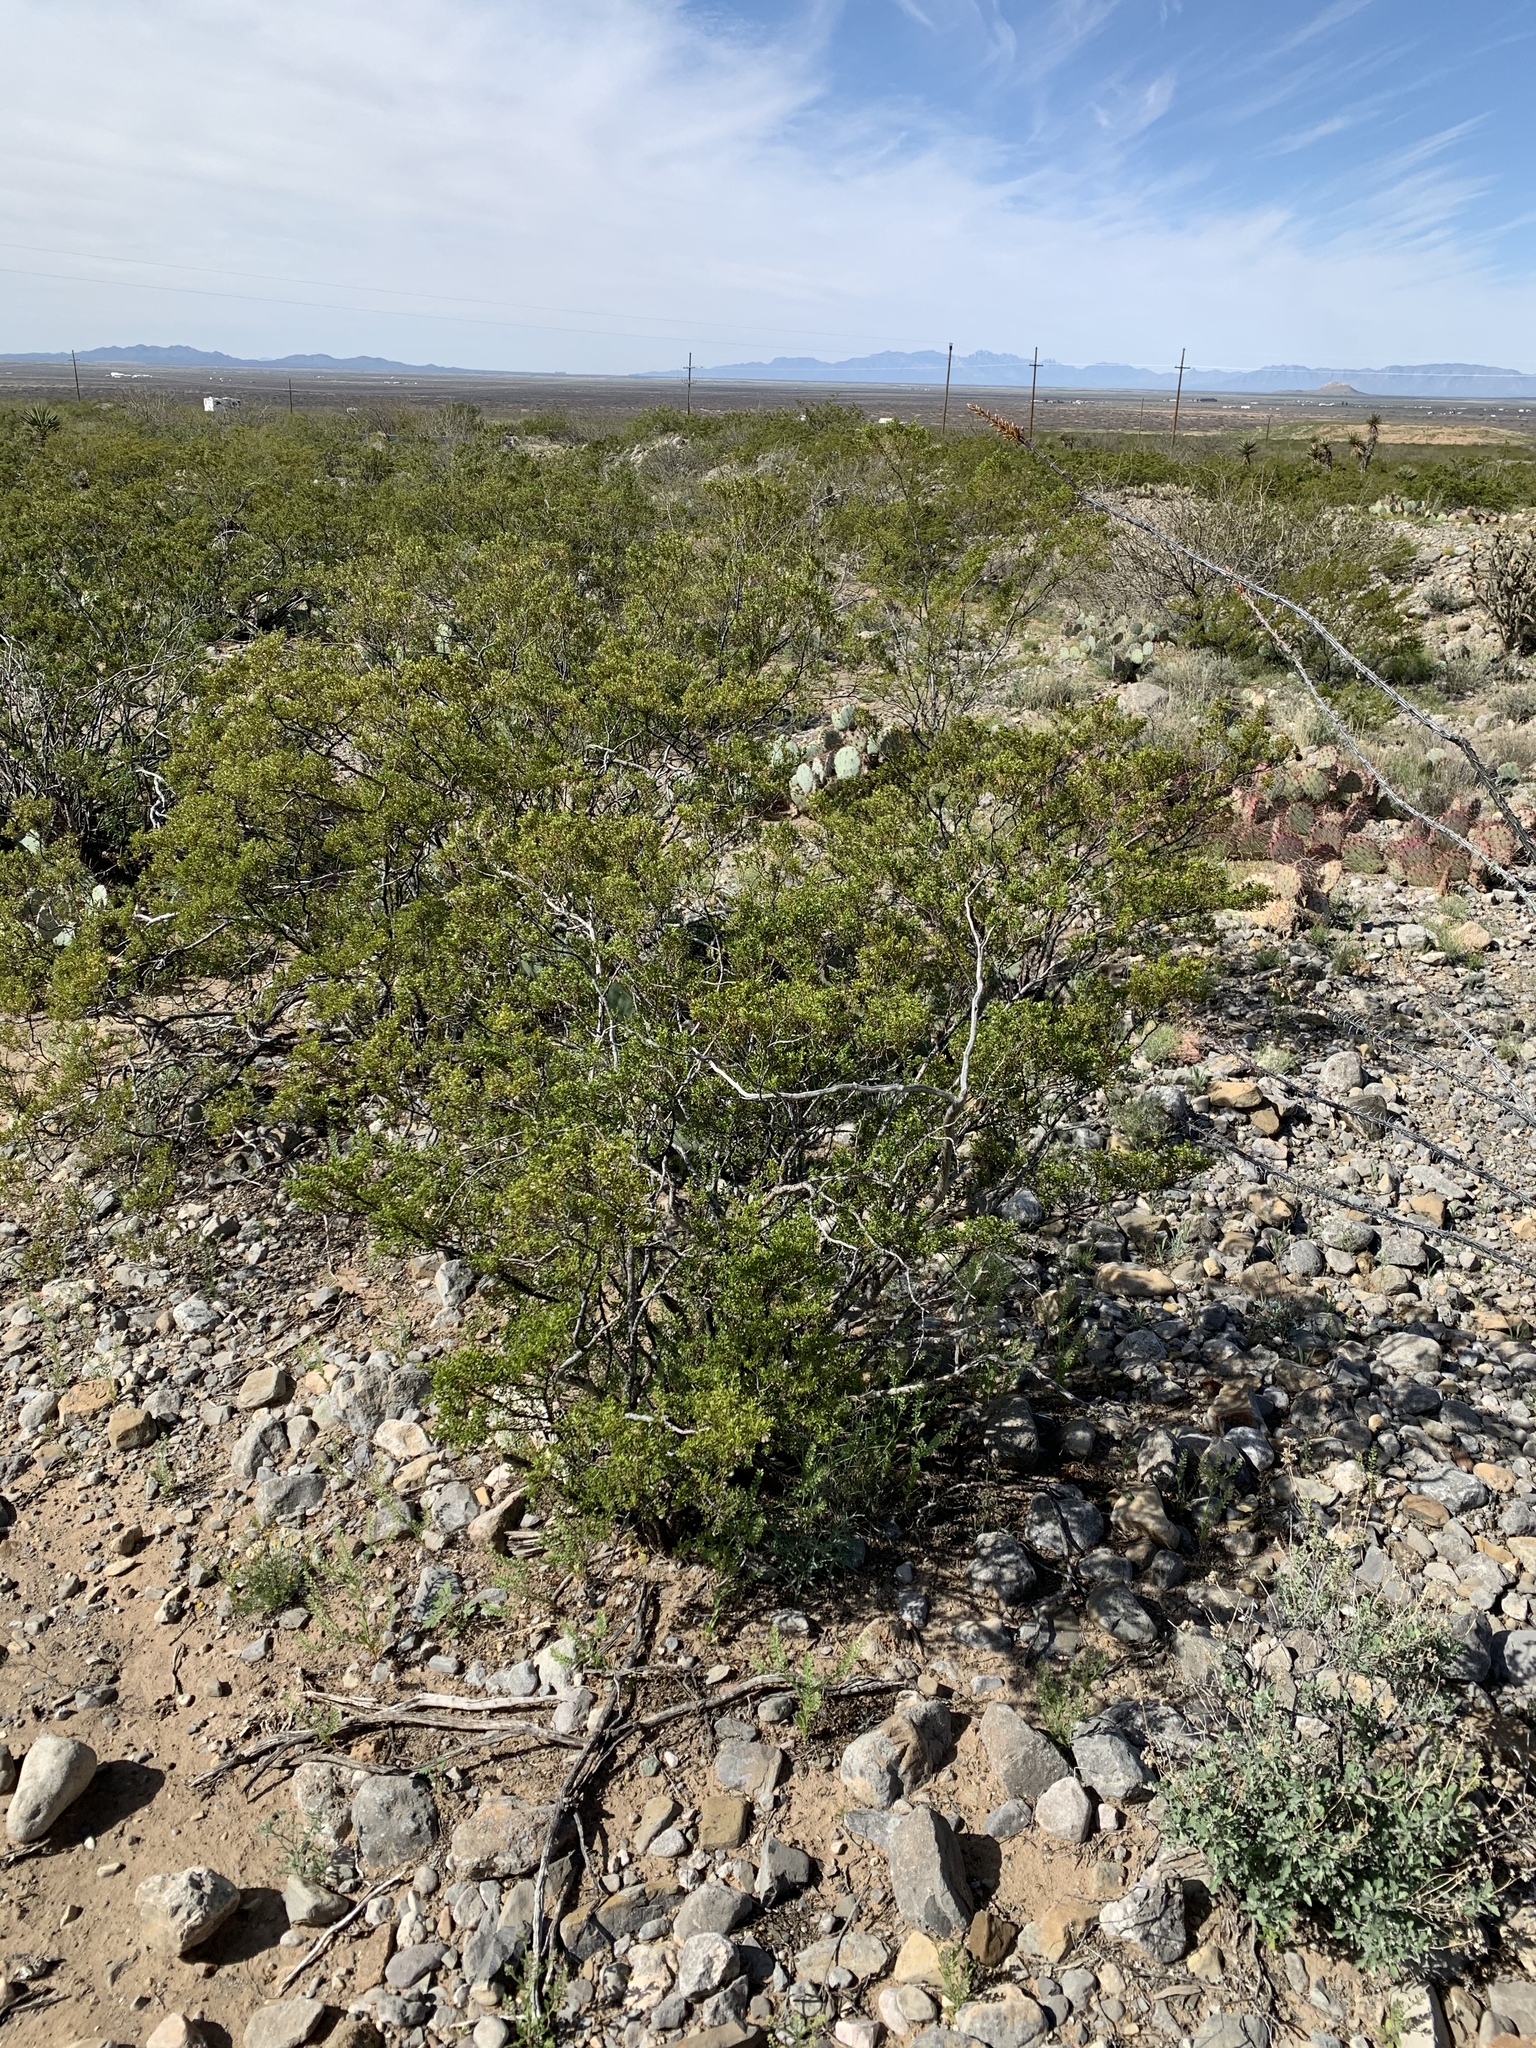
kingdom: Plantae
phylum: Tracheophyta
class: Magnoliopsida
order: Zygophyllales
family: Zygophyllaceae
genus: Larrea
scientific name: Larrea tridentata
